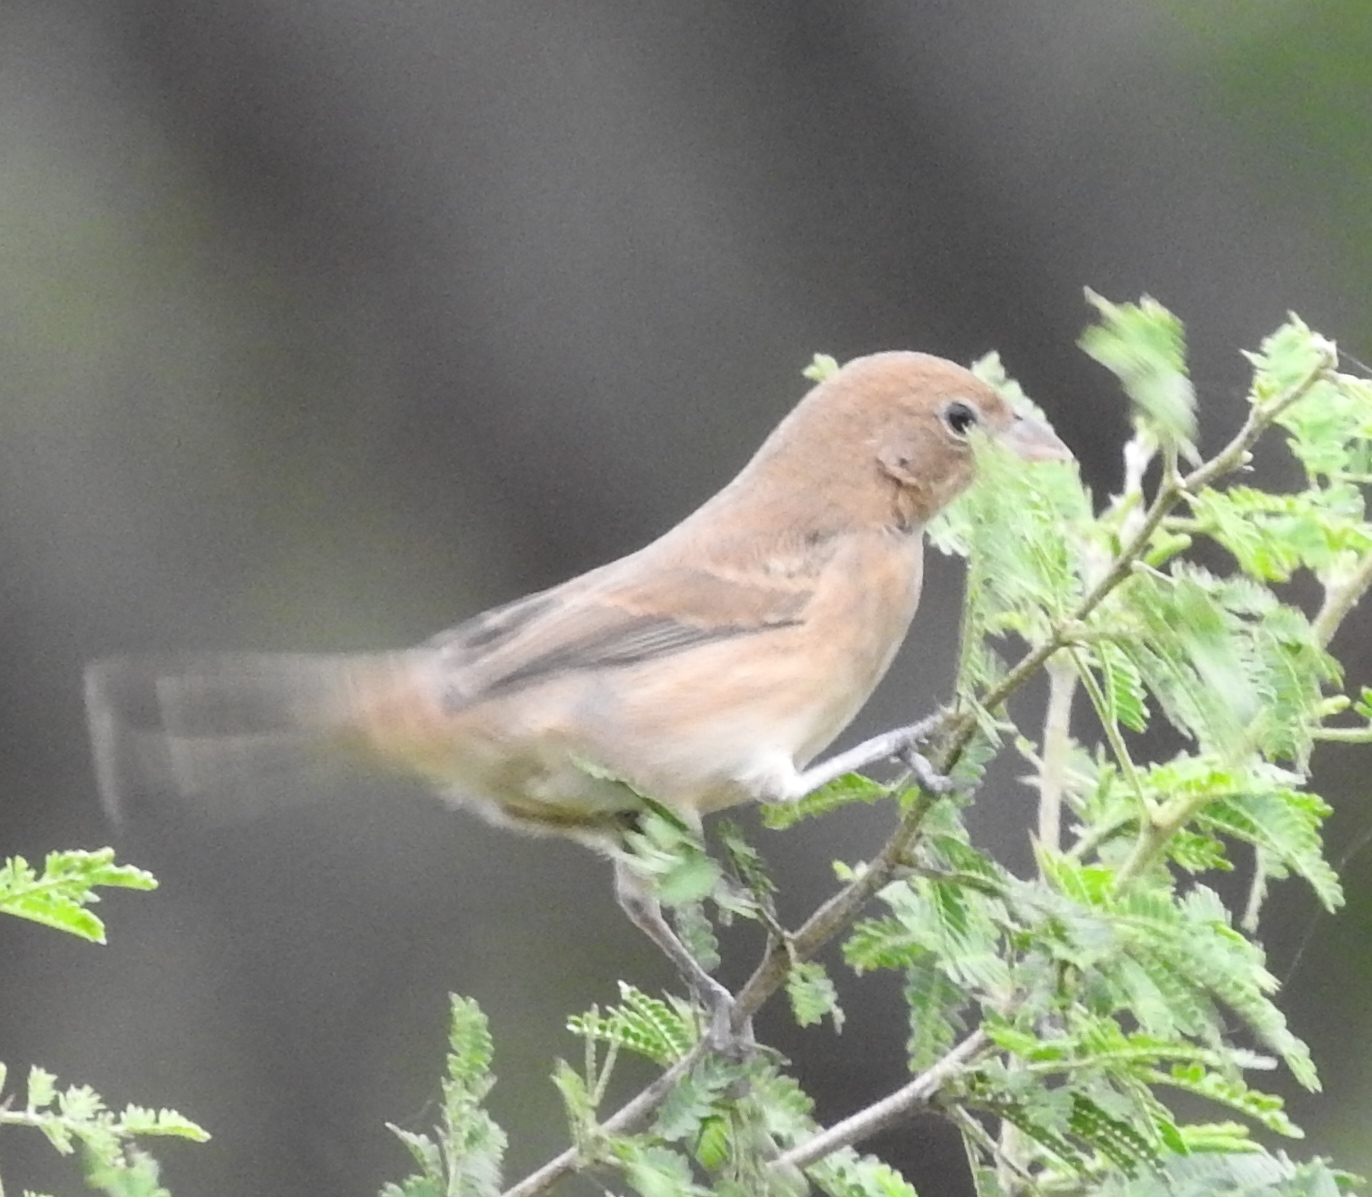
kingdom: Animalia
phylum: Chordata
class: Aves
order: Passeriformes
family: Cardinalidae
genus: Passerina
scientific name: Passerina cyanea
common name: Indigo bunting
